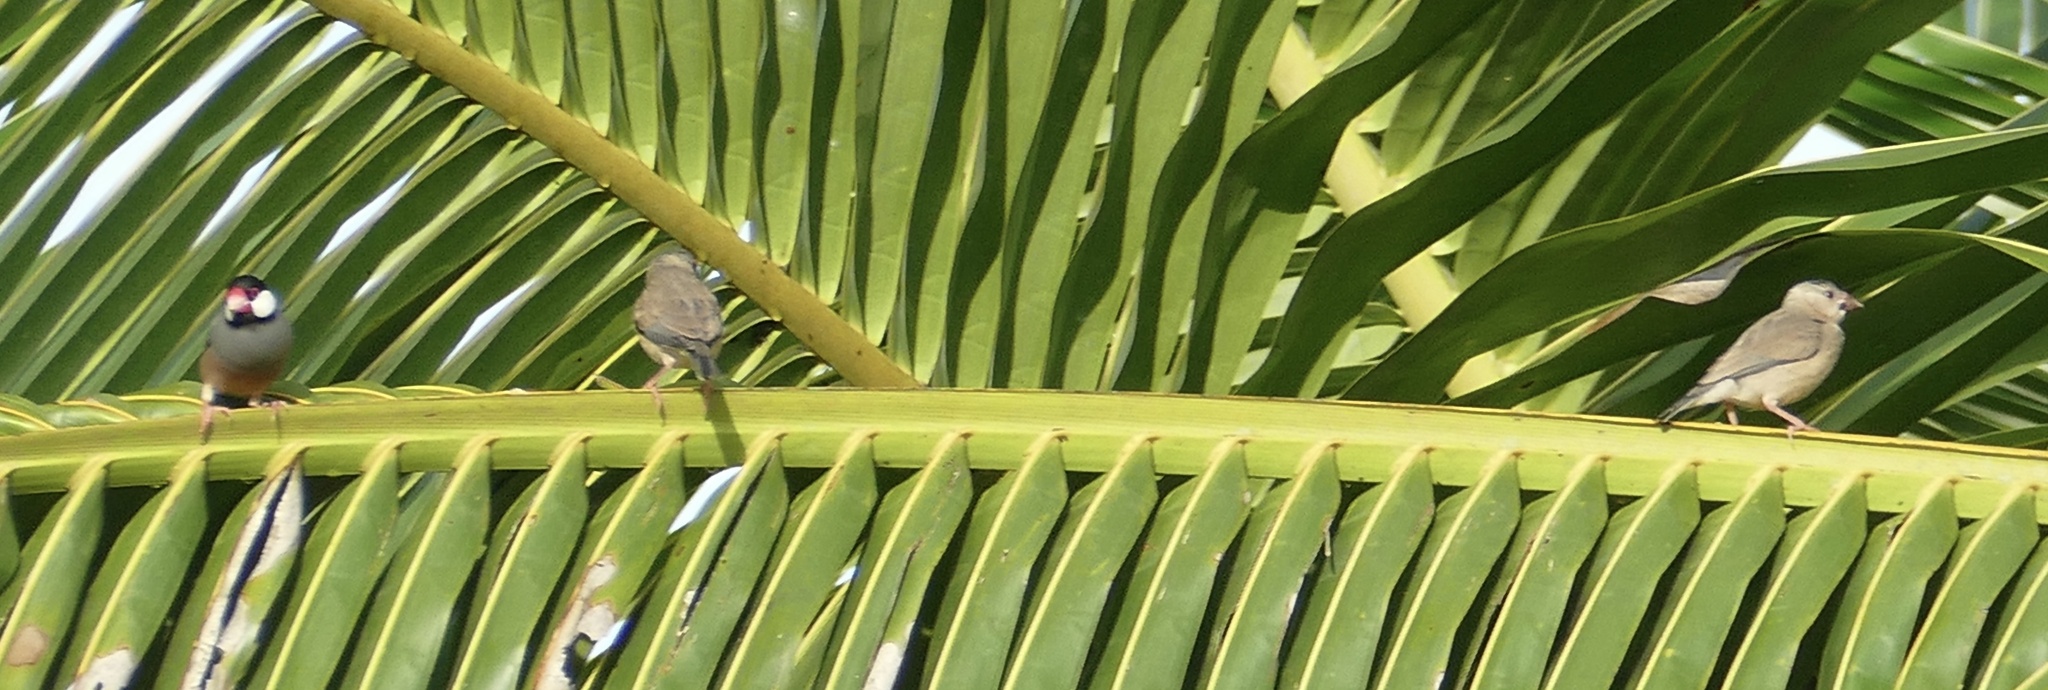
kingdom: Animalia
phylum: Chordata
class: Aves
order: Passeriformes
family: Estrildidae
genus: Lonchura
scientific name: Lonchura oryzivora
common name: Java sparrow
